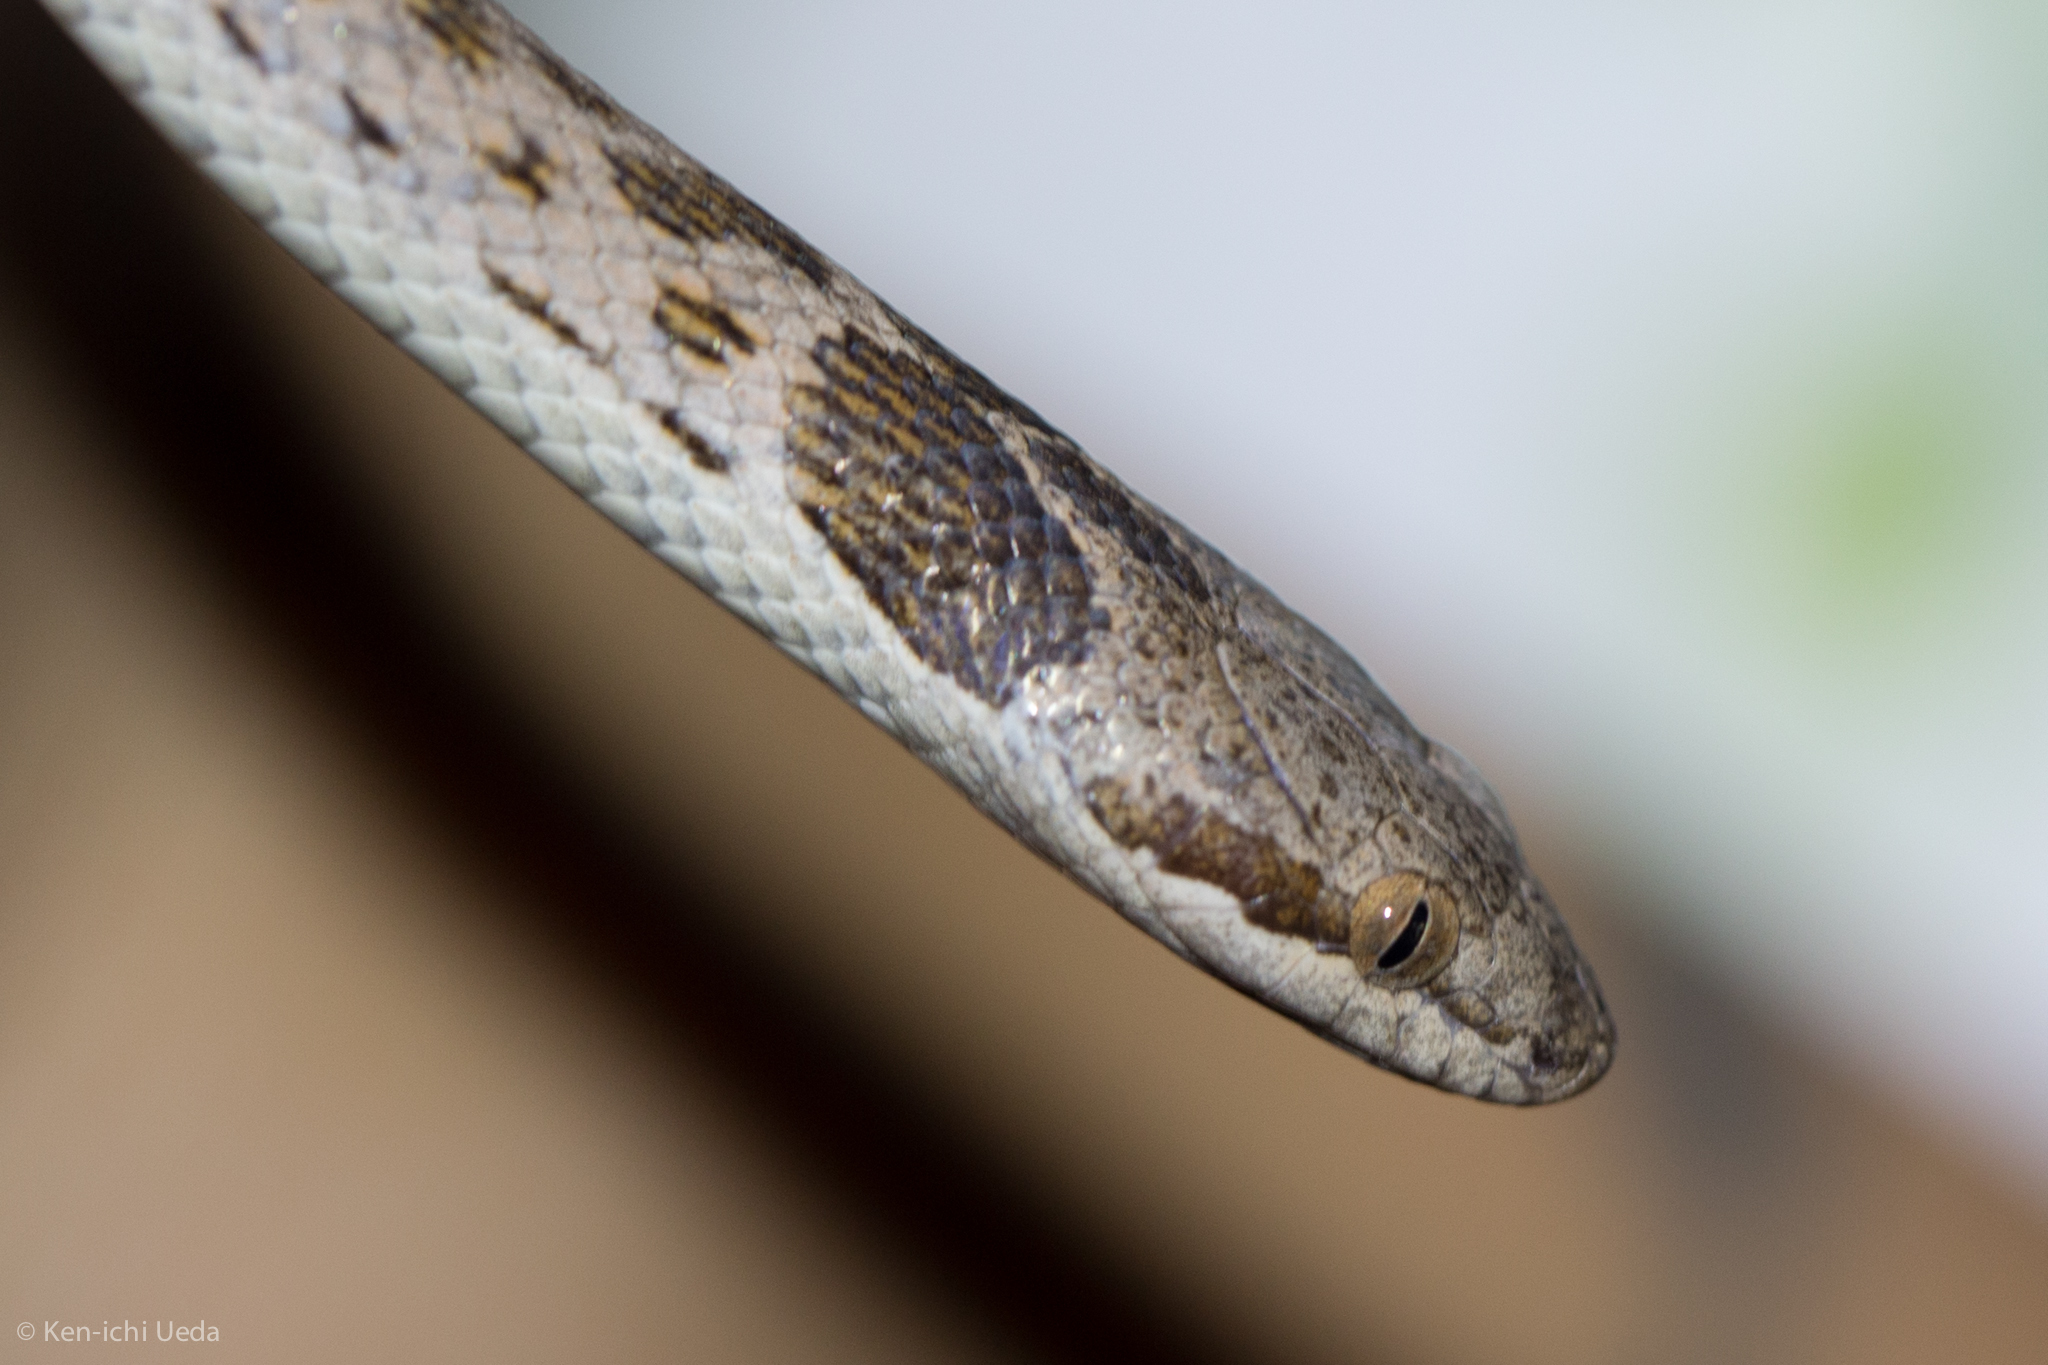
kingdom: Animalia
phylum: Chordata
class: Squamata
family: Colubridae
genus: Hypsiglena
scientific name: Hypsiglena chlorophaea
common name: Desert nightsnake
